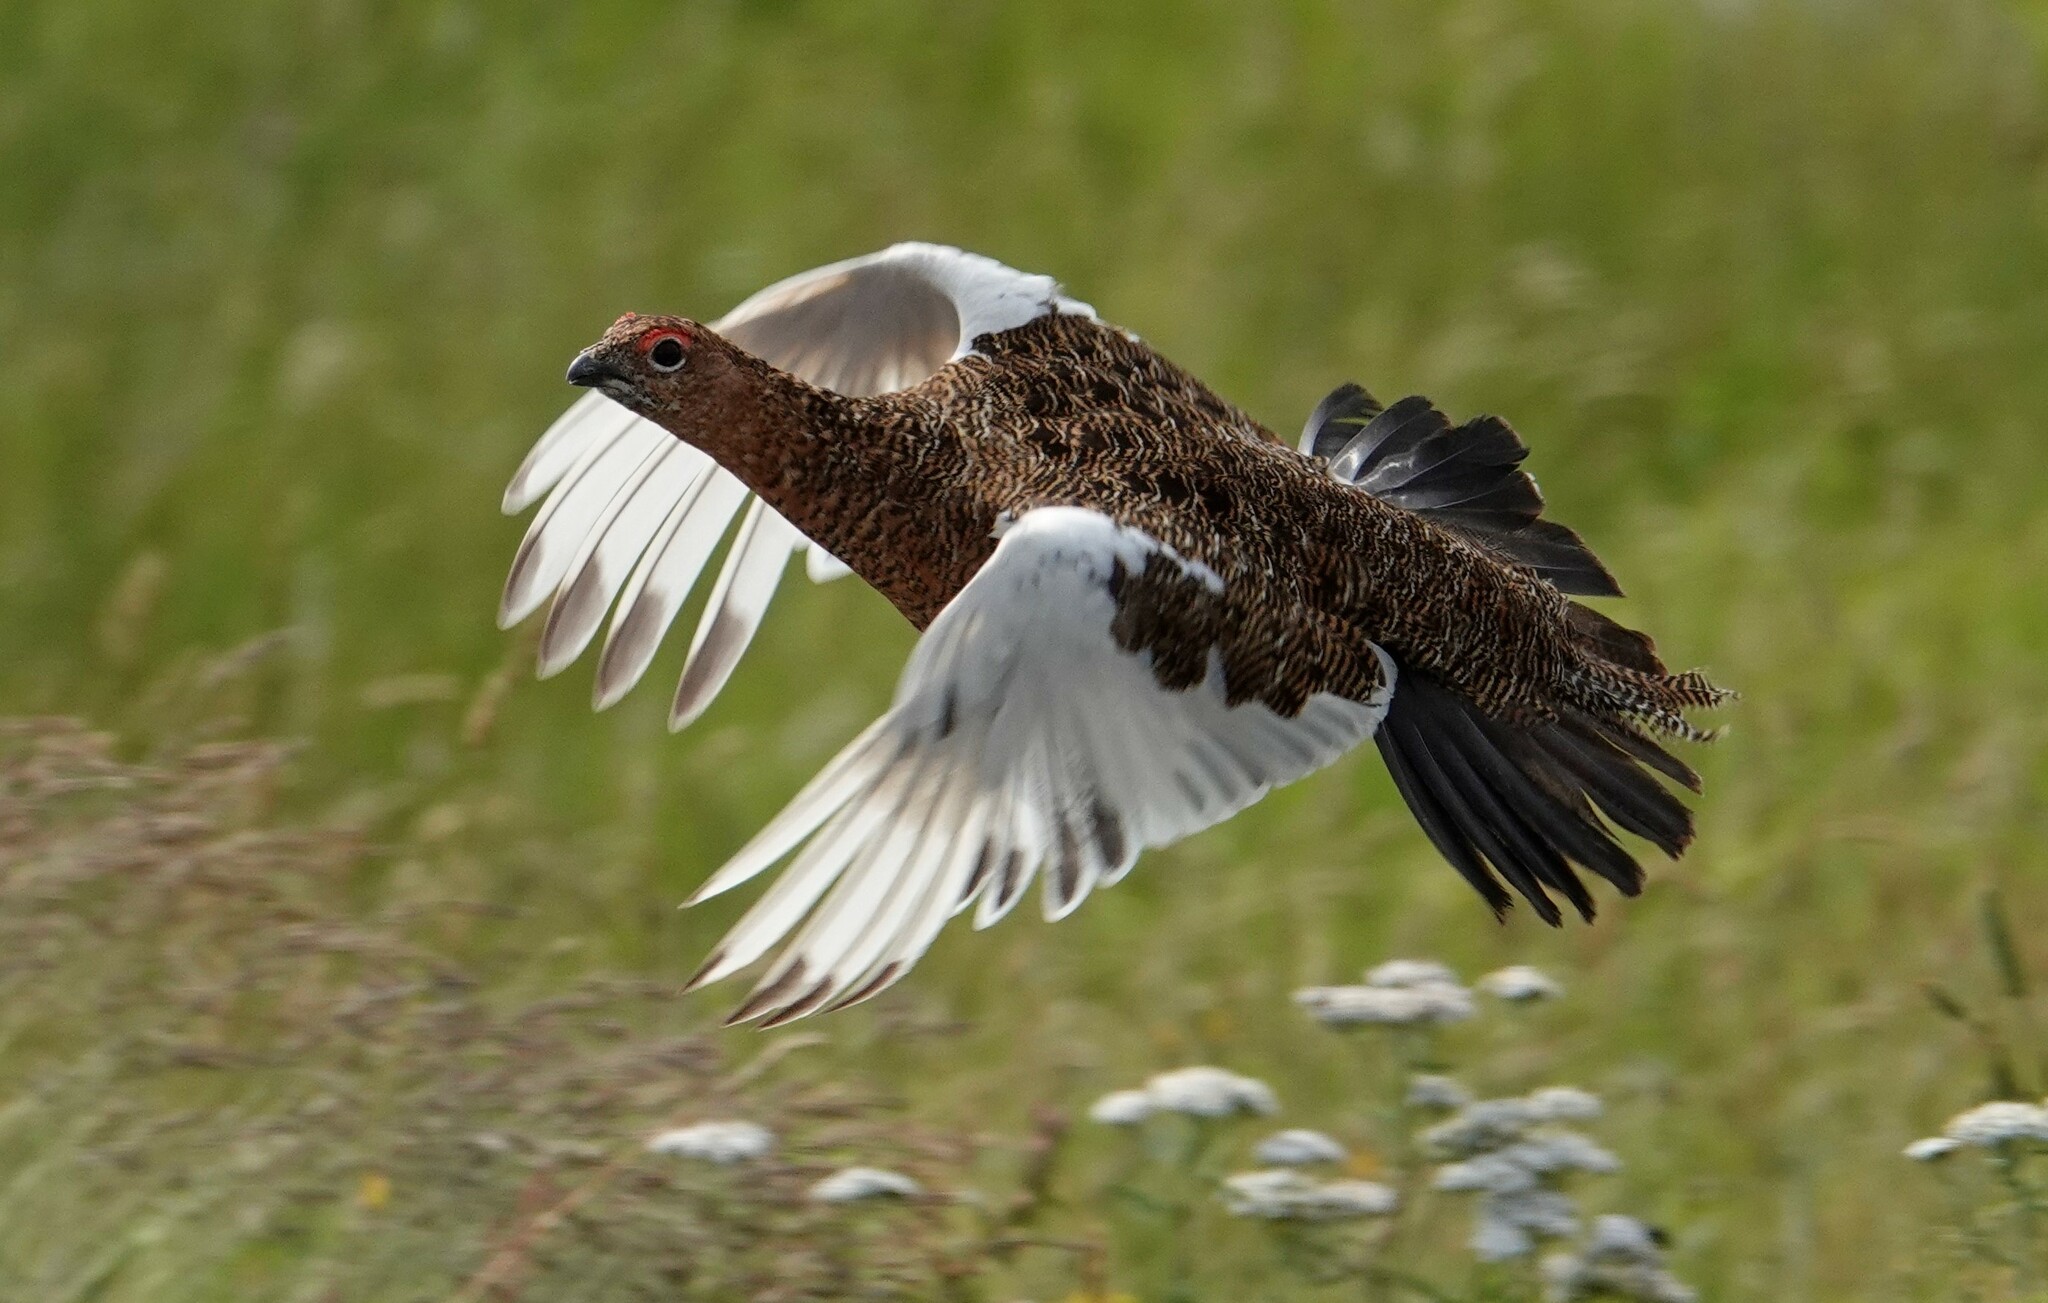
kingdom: Animalia
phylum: Chordata
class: Aves
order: Galliformes
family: Phasianidae
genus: Lagopus
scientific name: Lagopus lagopus
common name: Willow ptarmigan
